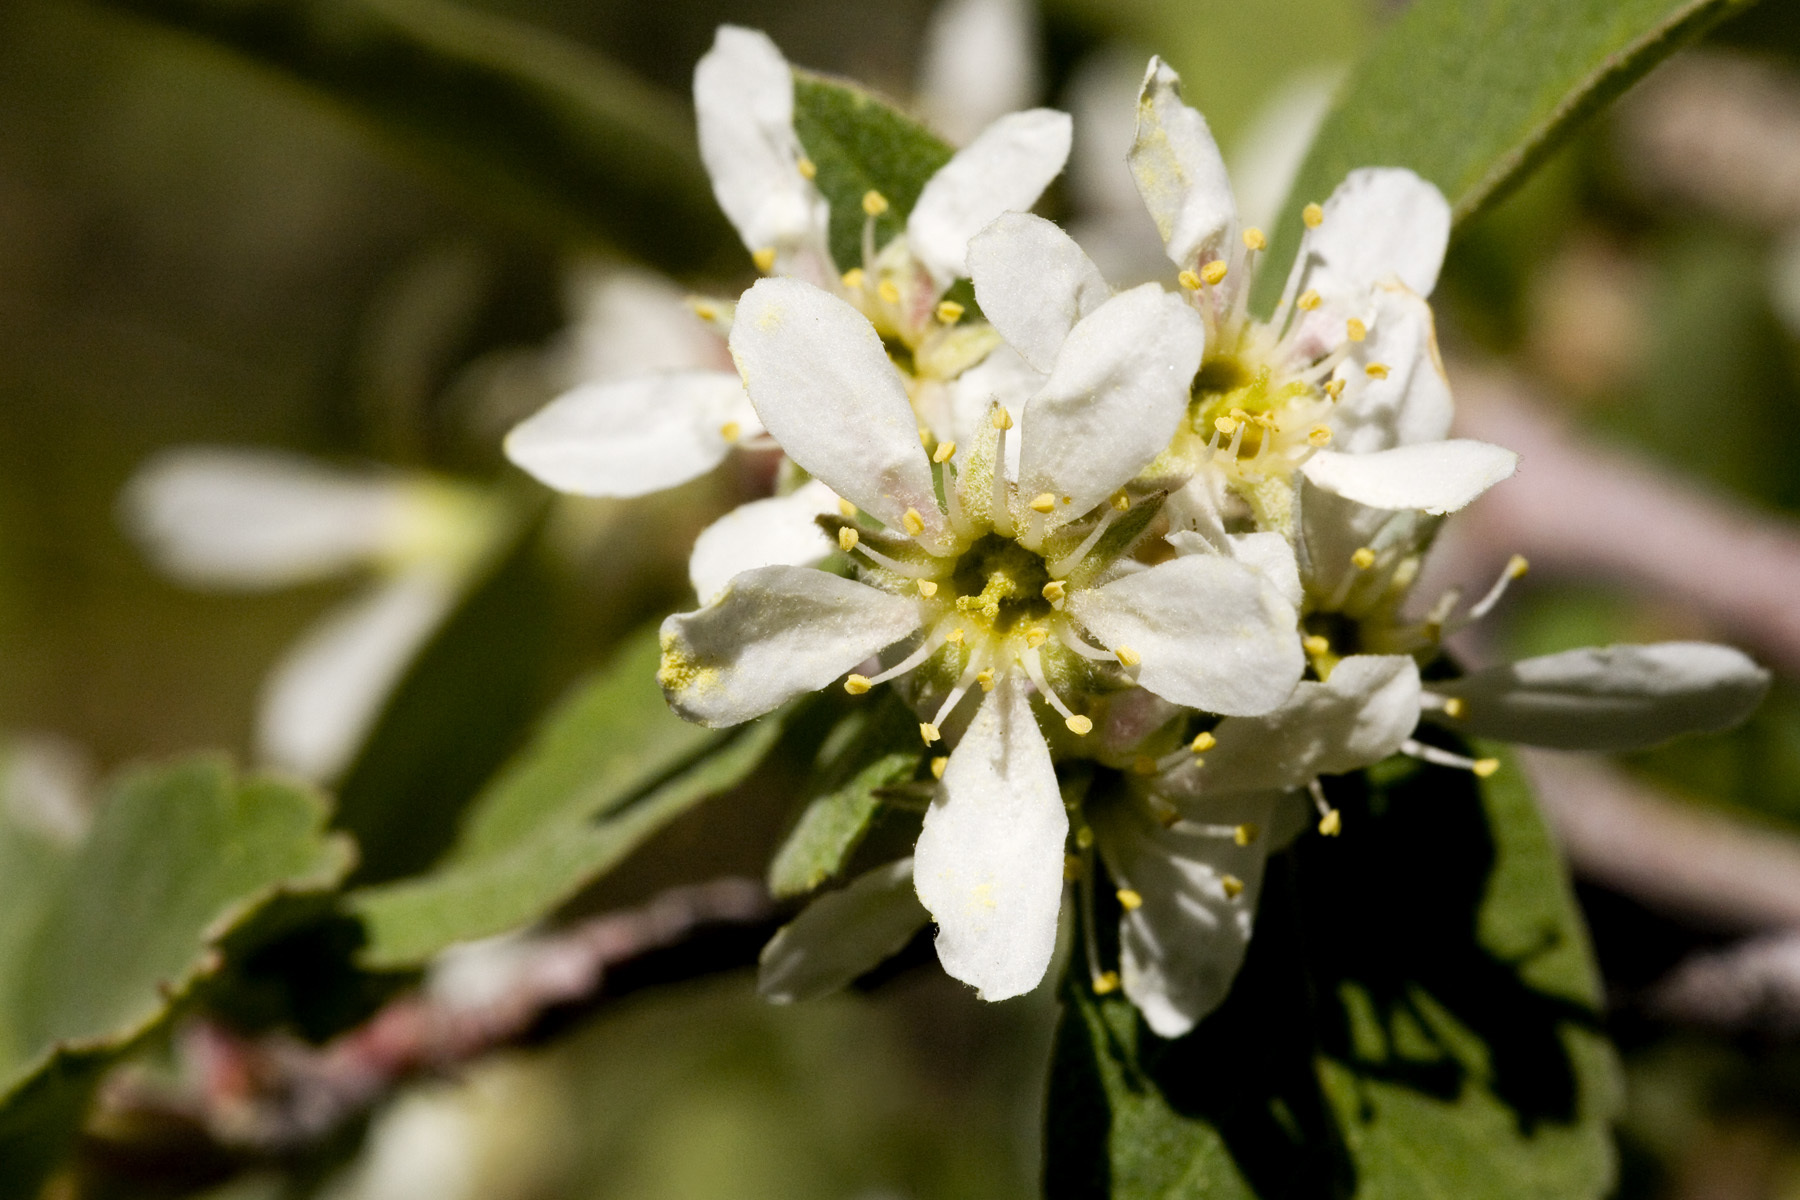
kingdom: Plantae
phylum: Tracheophyta
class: Magnoliopsida
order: Rosales
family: Rosaceae
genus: Amelanchier
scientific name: Amelanchier utahensis
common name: Utah serviceberry
